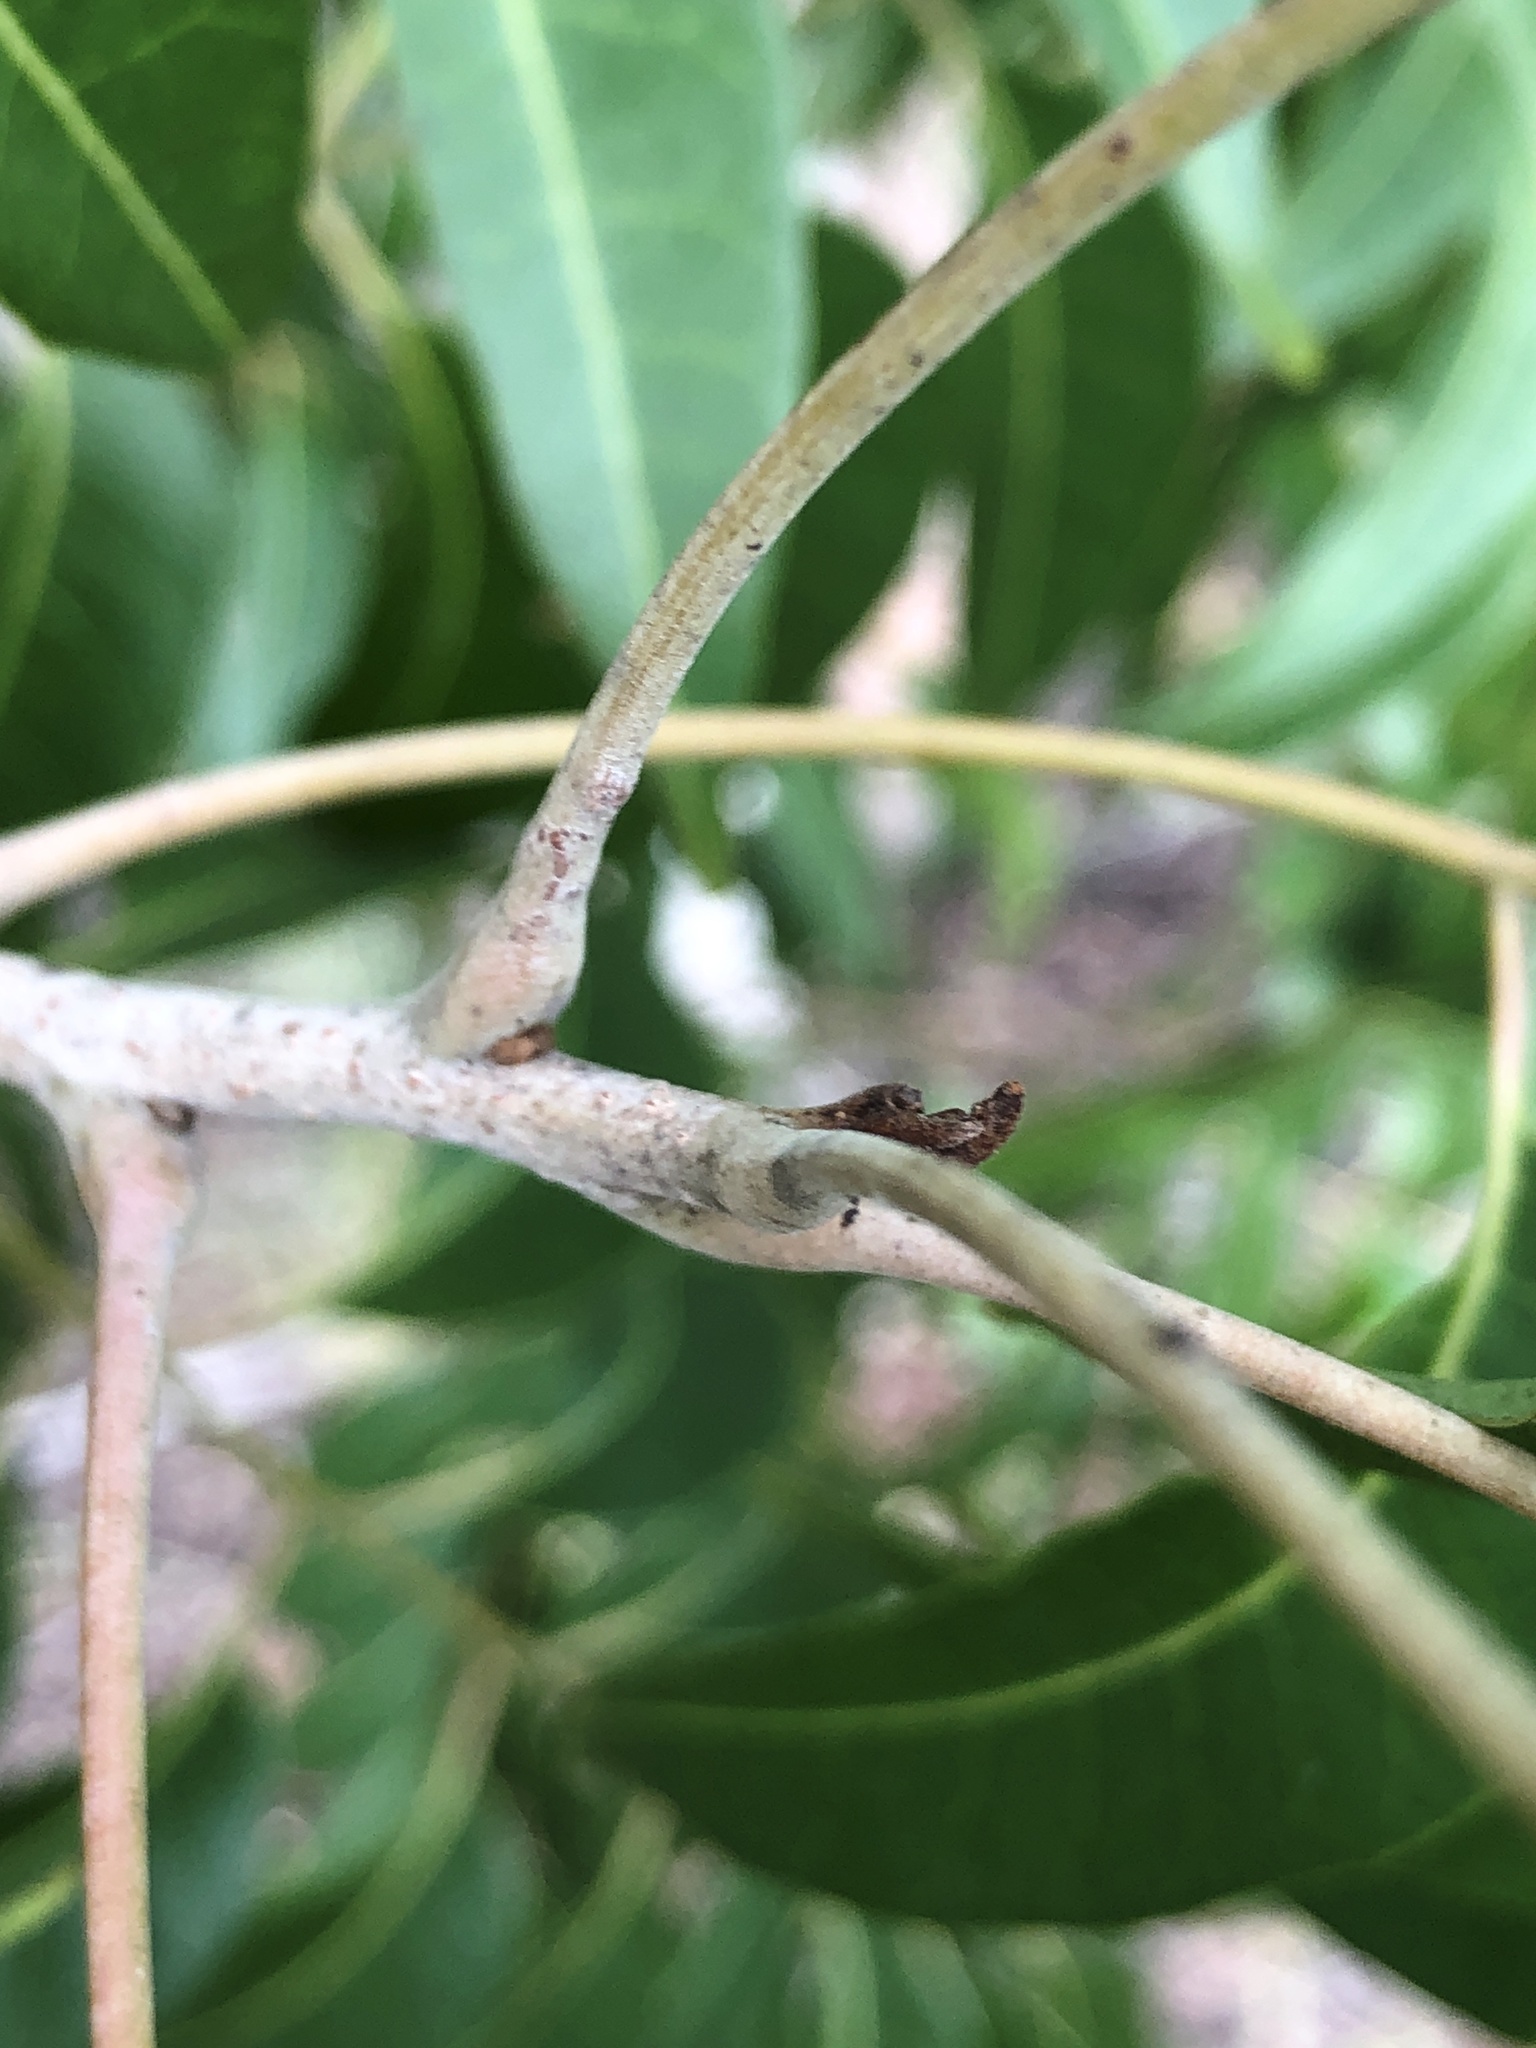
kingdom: Plantae
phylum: Tracheophyta
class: Magnoliopsida
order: Sapindales
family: Anacardiaceae
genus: Euroschinus
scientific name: Euroschinus falcatus
